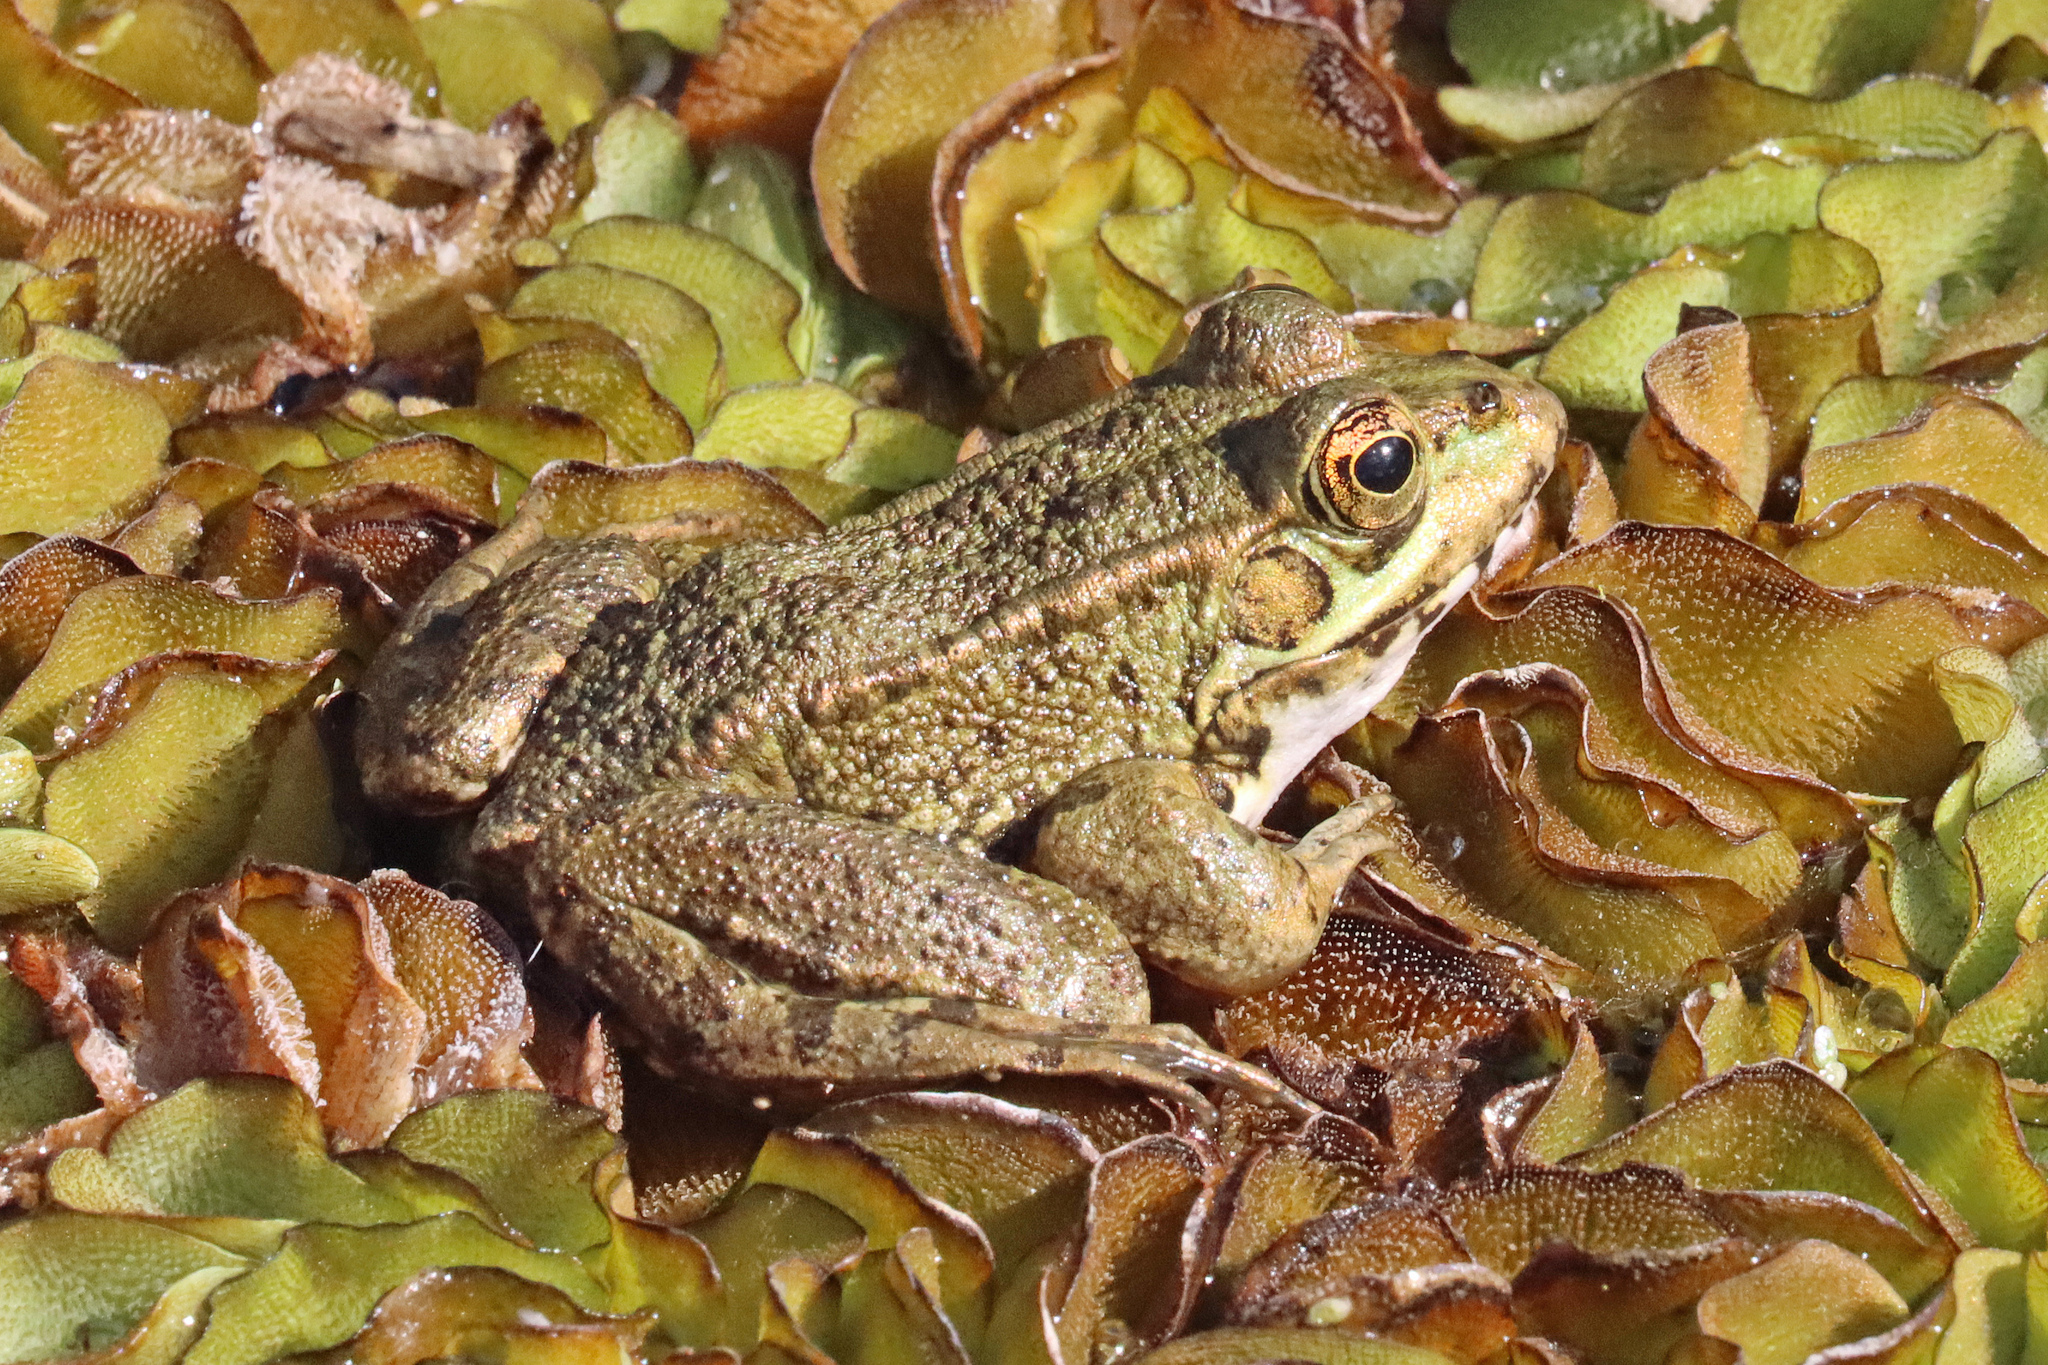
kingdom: Animalia
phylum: Chordata
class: Amphibia
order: Anura
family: Ranidae
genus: Pelophylax
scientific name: Pelophylax perezi
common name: Perez's frog
